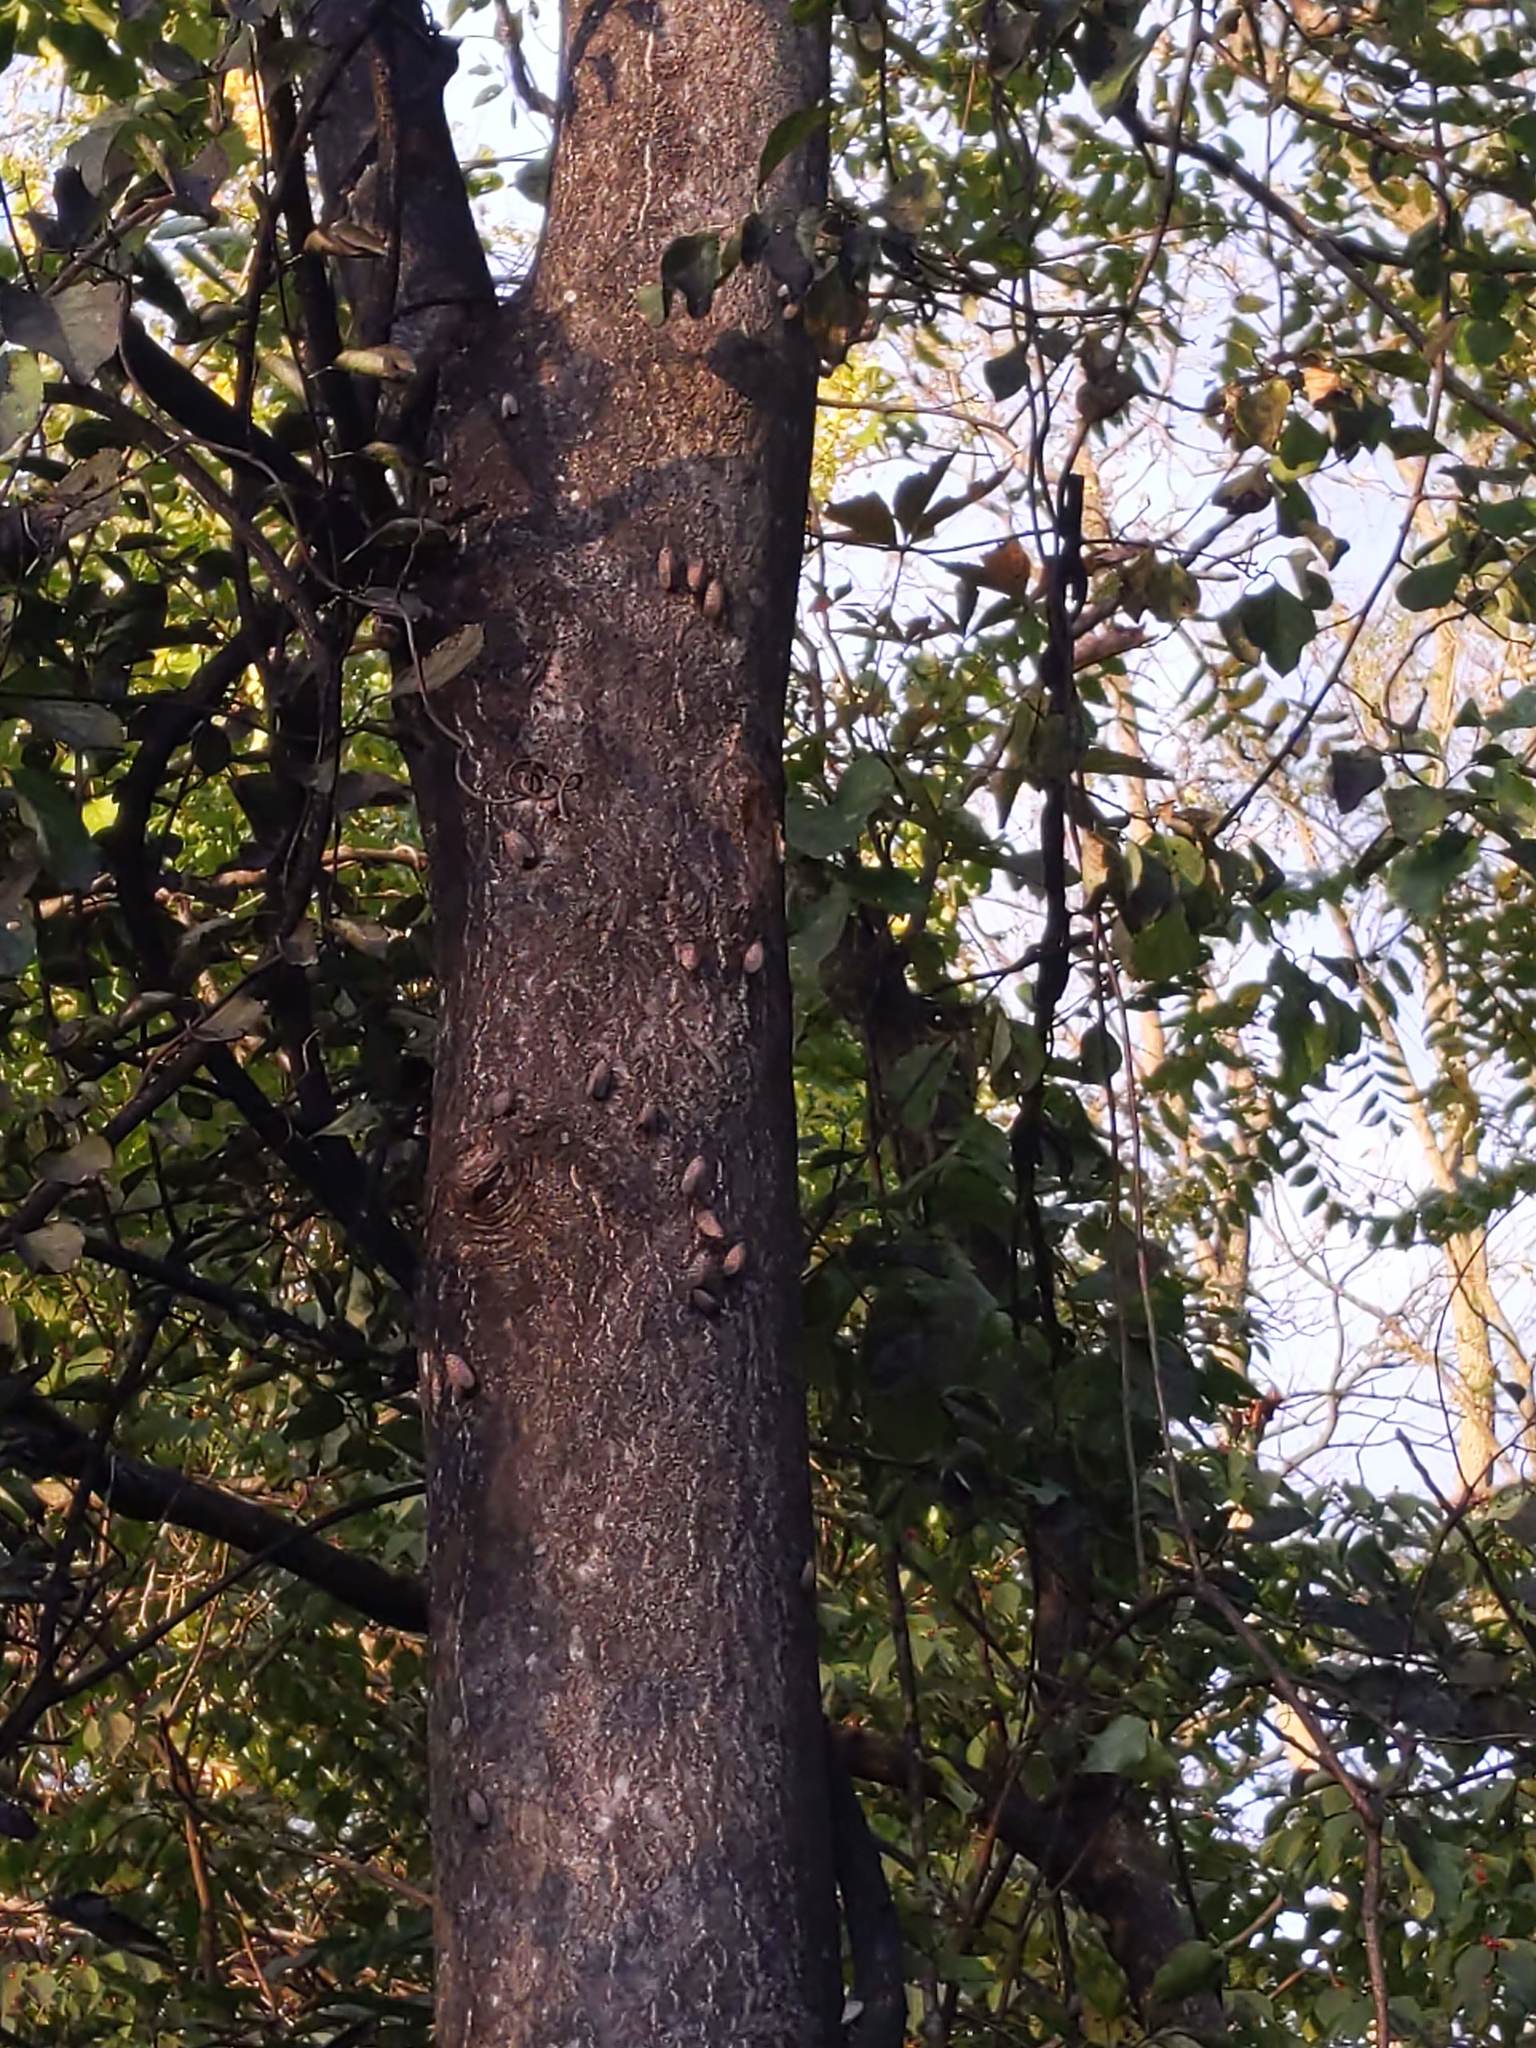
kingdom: Animalia
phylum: Arthropoda
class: Insecta
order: Hemiptera
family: Fulgoridae
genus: Lycorma
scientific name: Lycorma delicatula
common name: Spotted lanternfly
